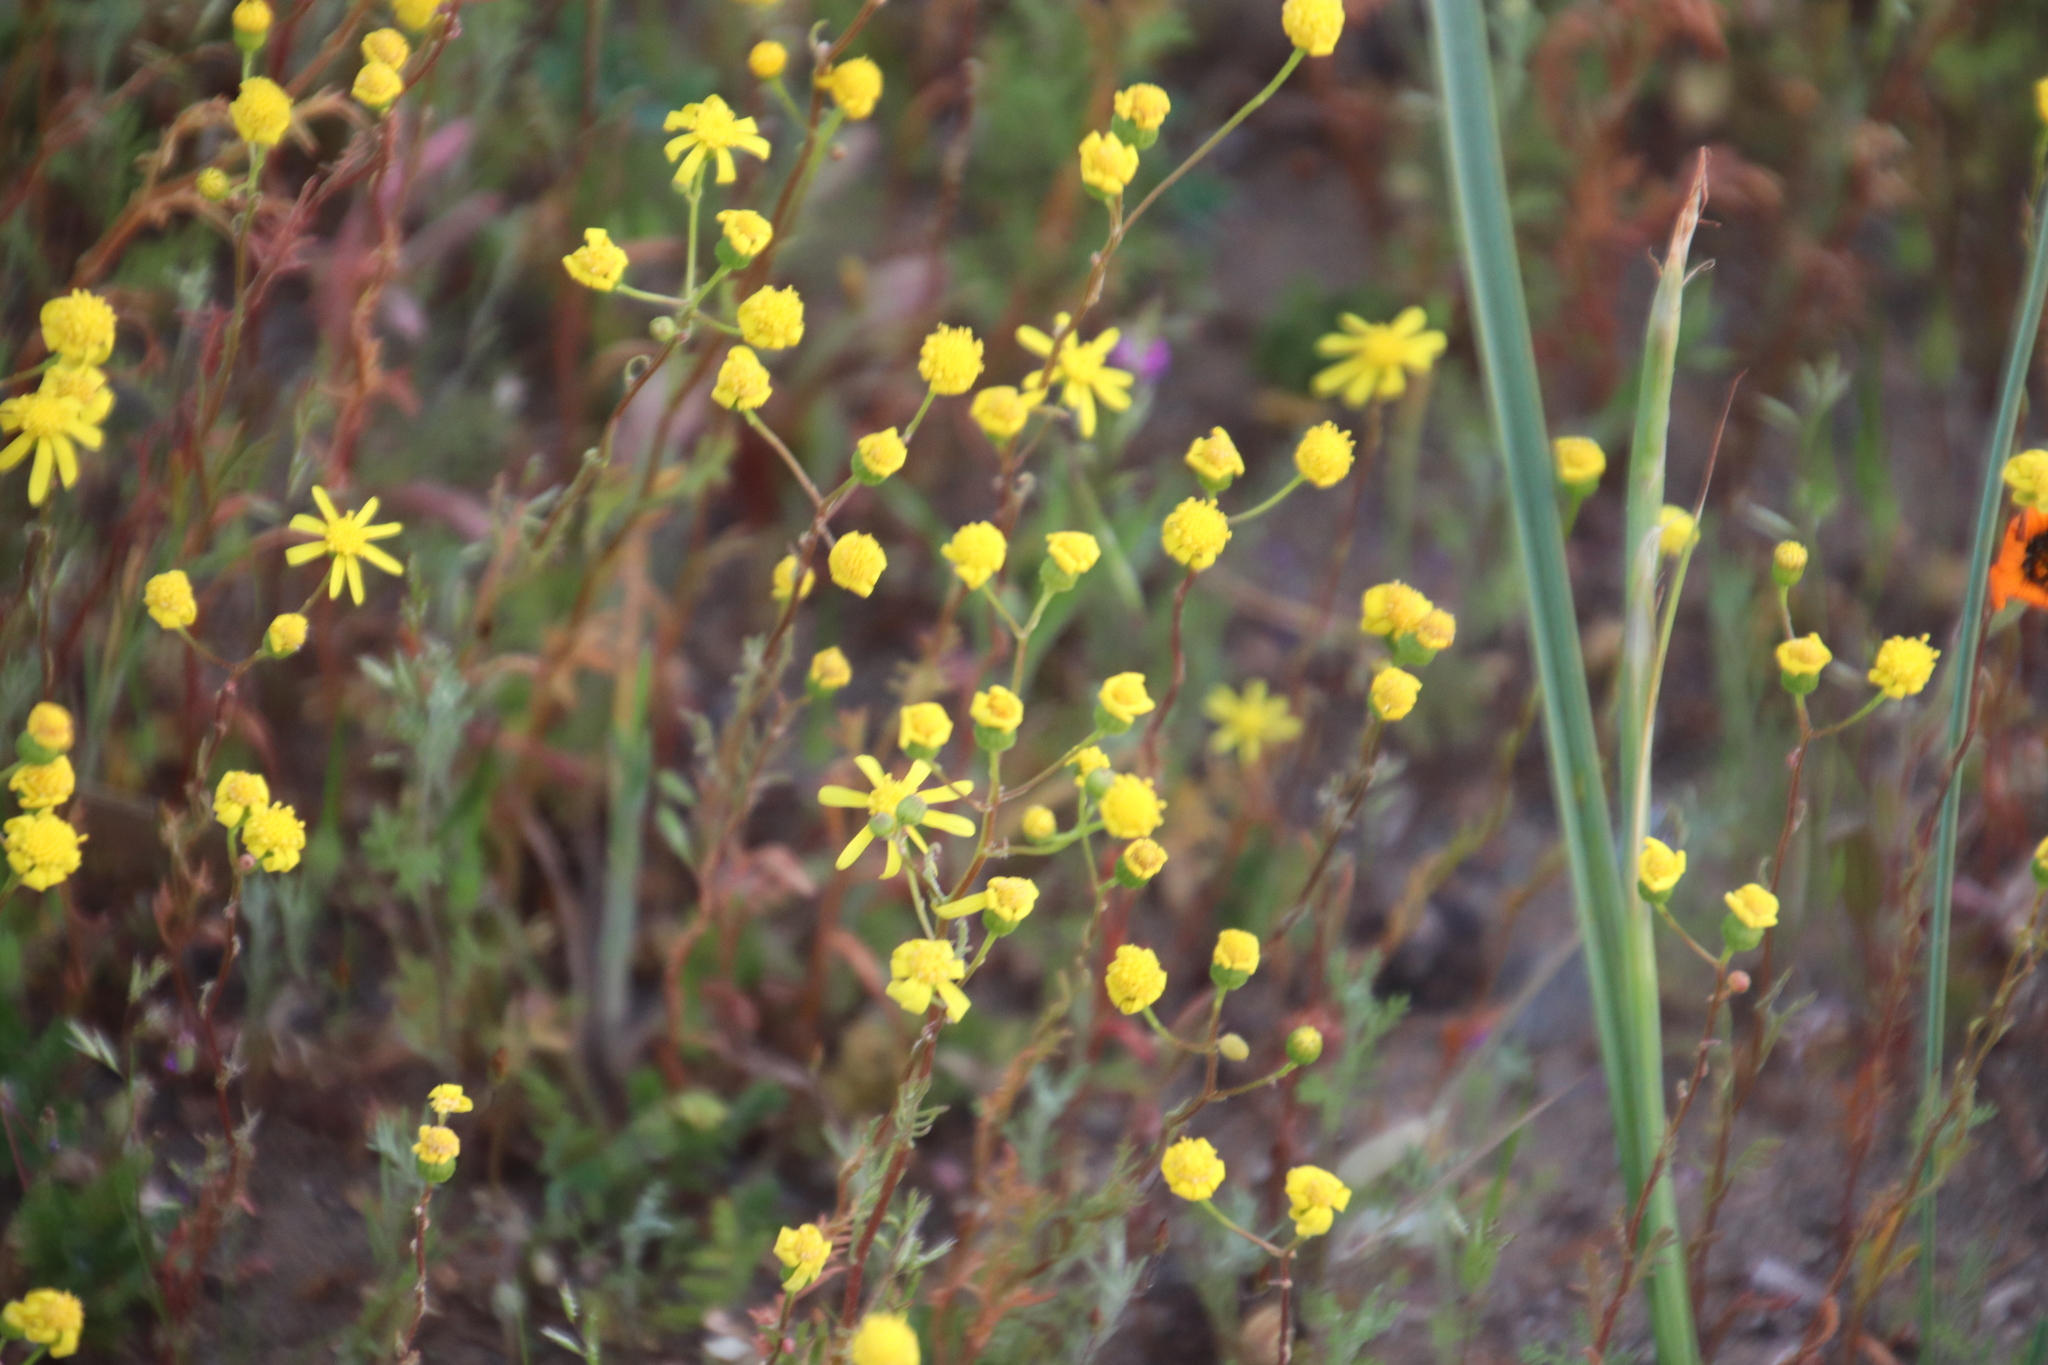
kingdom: Plantae
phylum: Tracheophyta
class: Magnoliopsida
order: Asterales
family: Asteraceae
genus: Senecio
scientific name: Senecio abruptus
